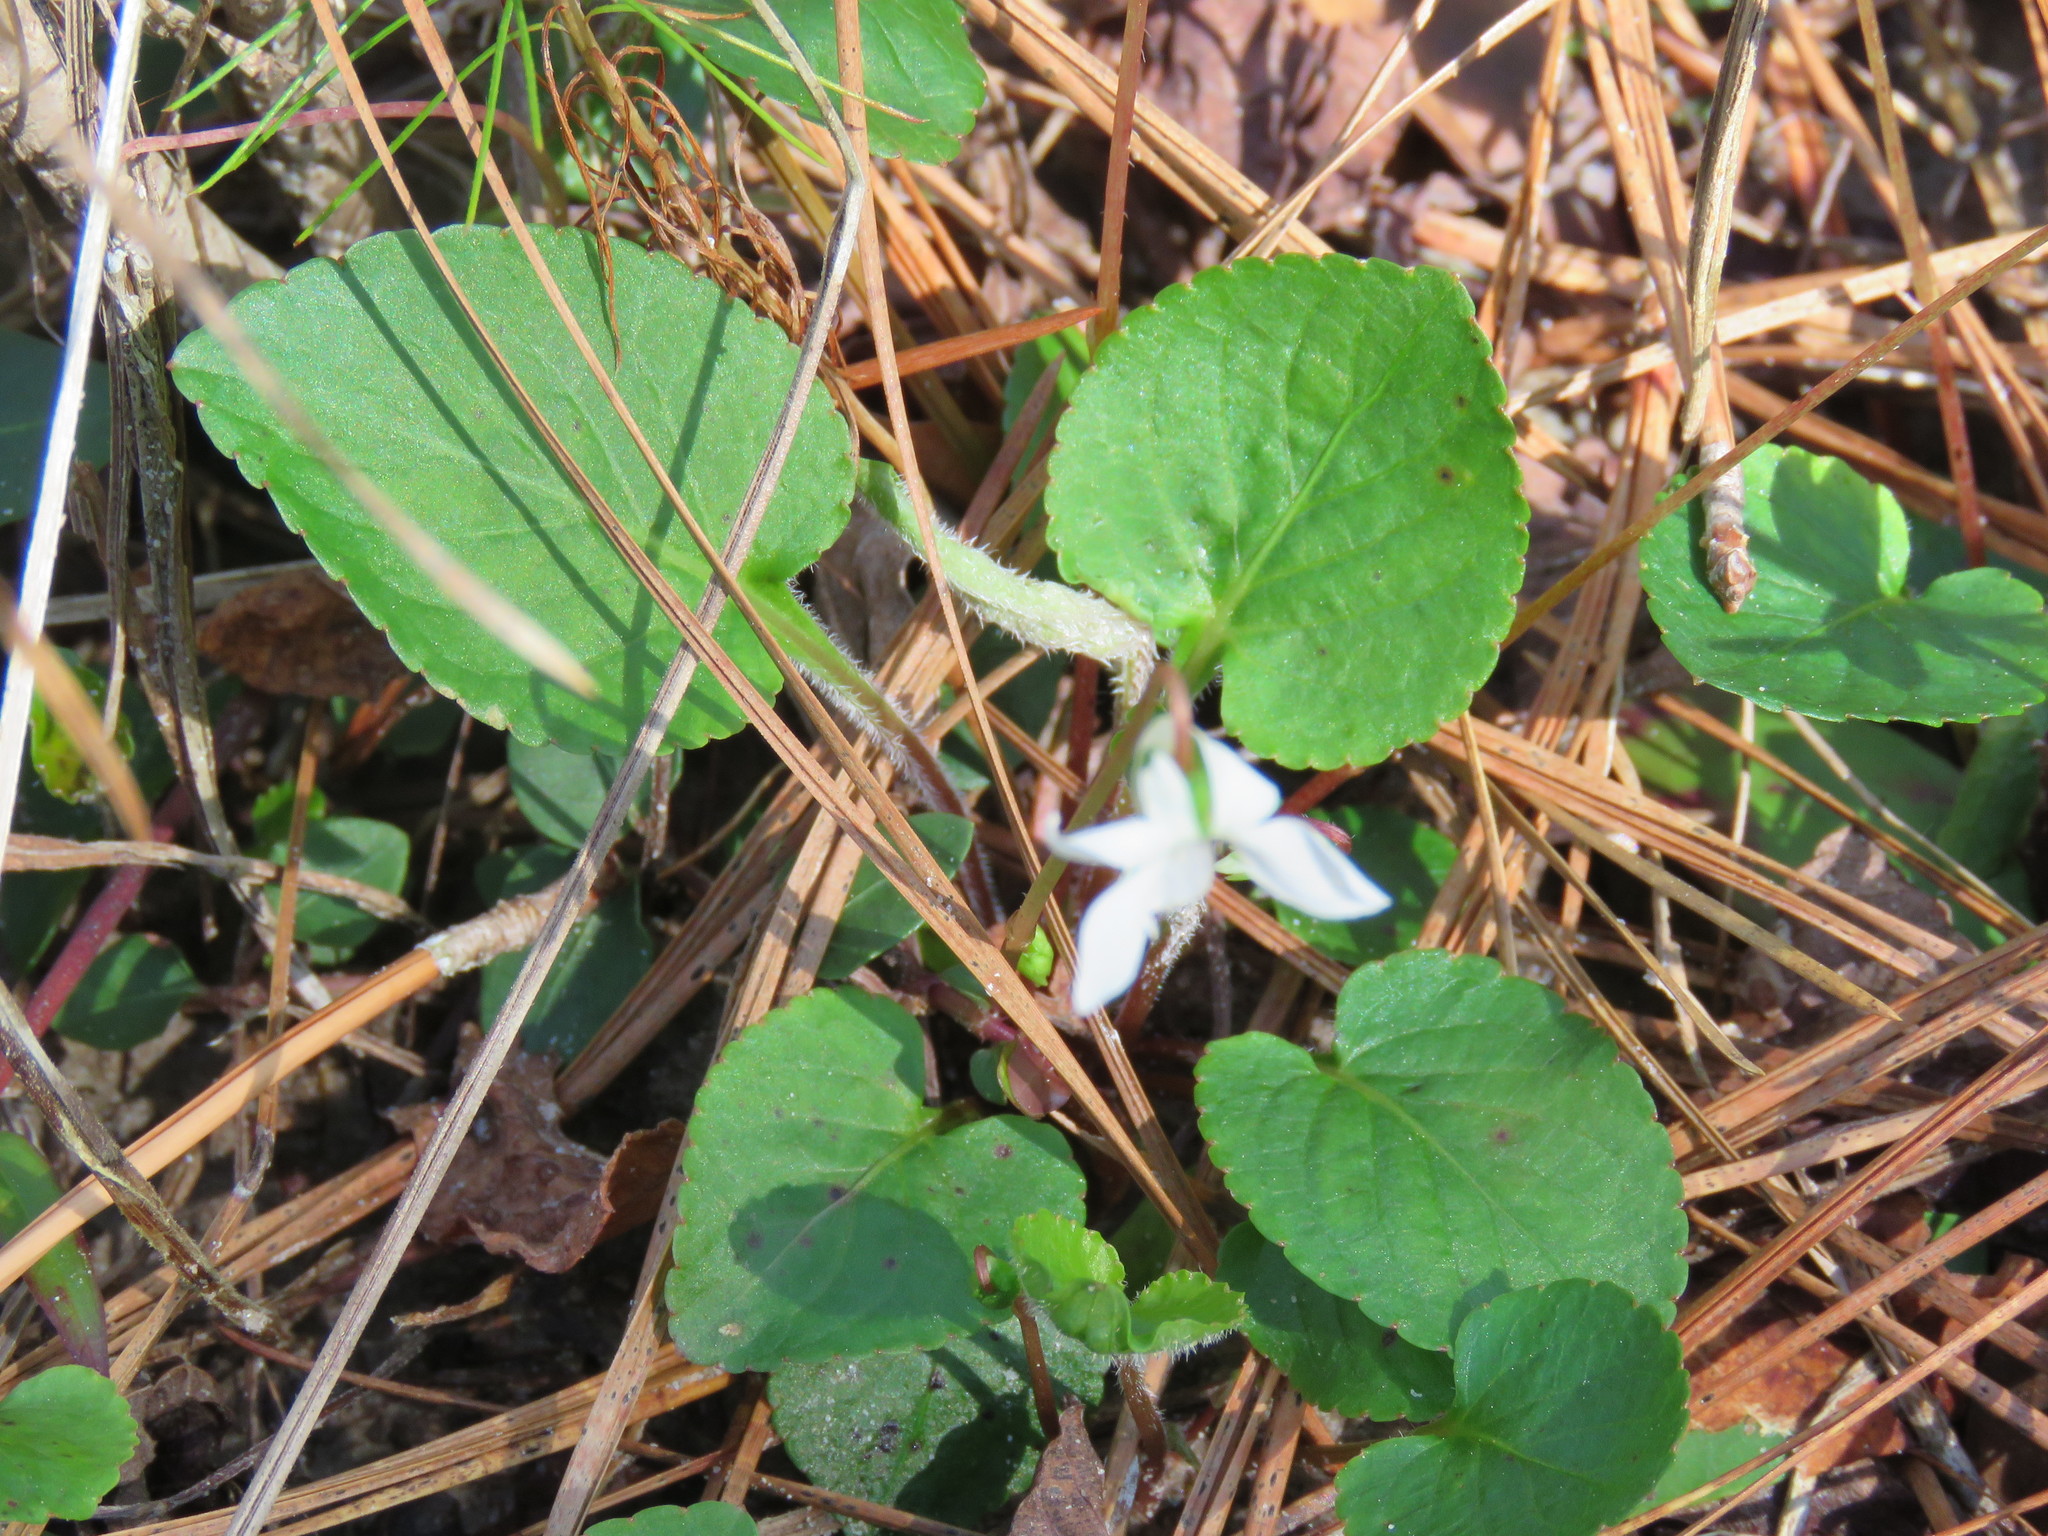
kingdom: Plantae
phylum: Tracheophyta
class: Magnoliopsida
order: Malpighiales
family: Violaceae
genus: Viola
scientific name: Viola primulifolia
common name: Primrose-leaf violet
